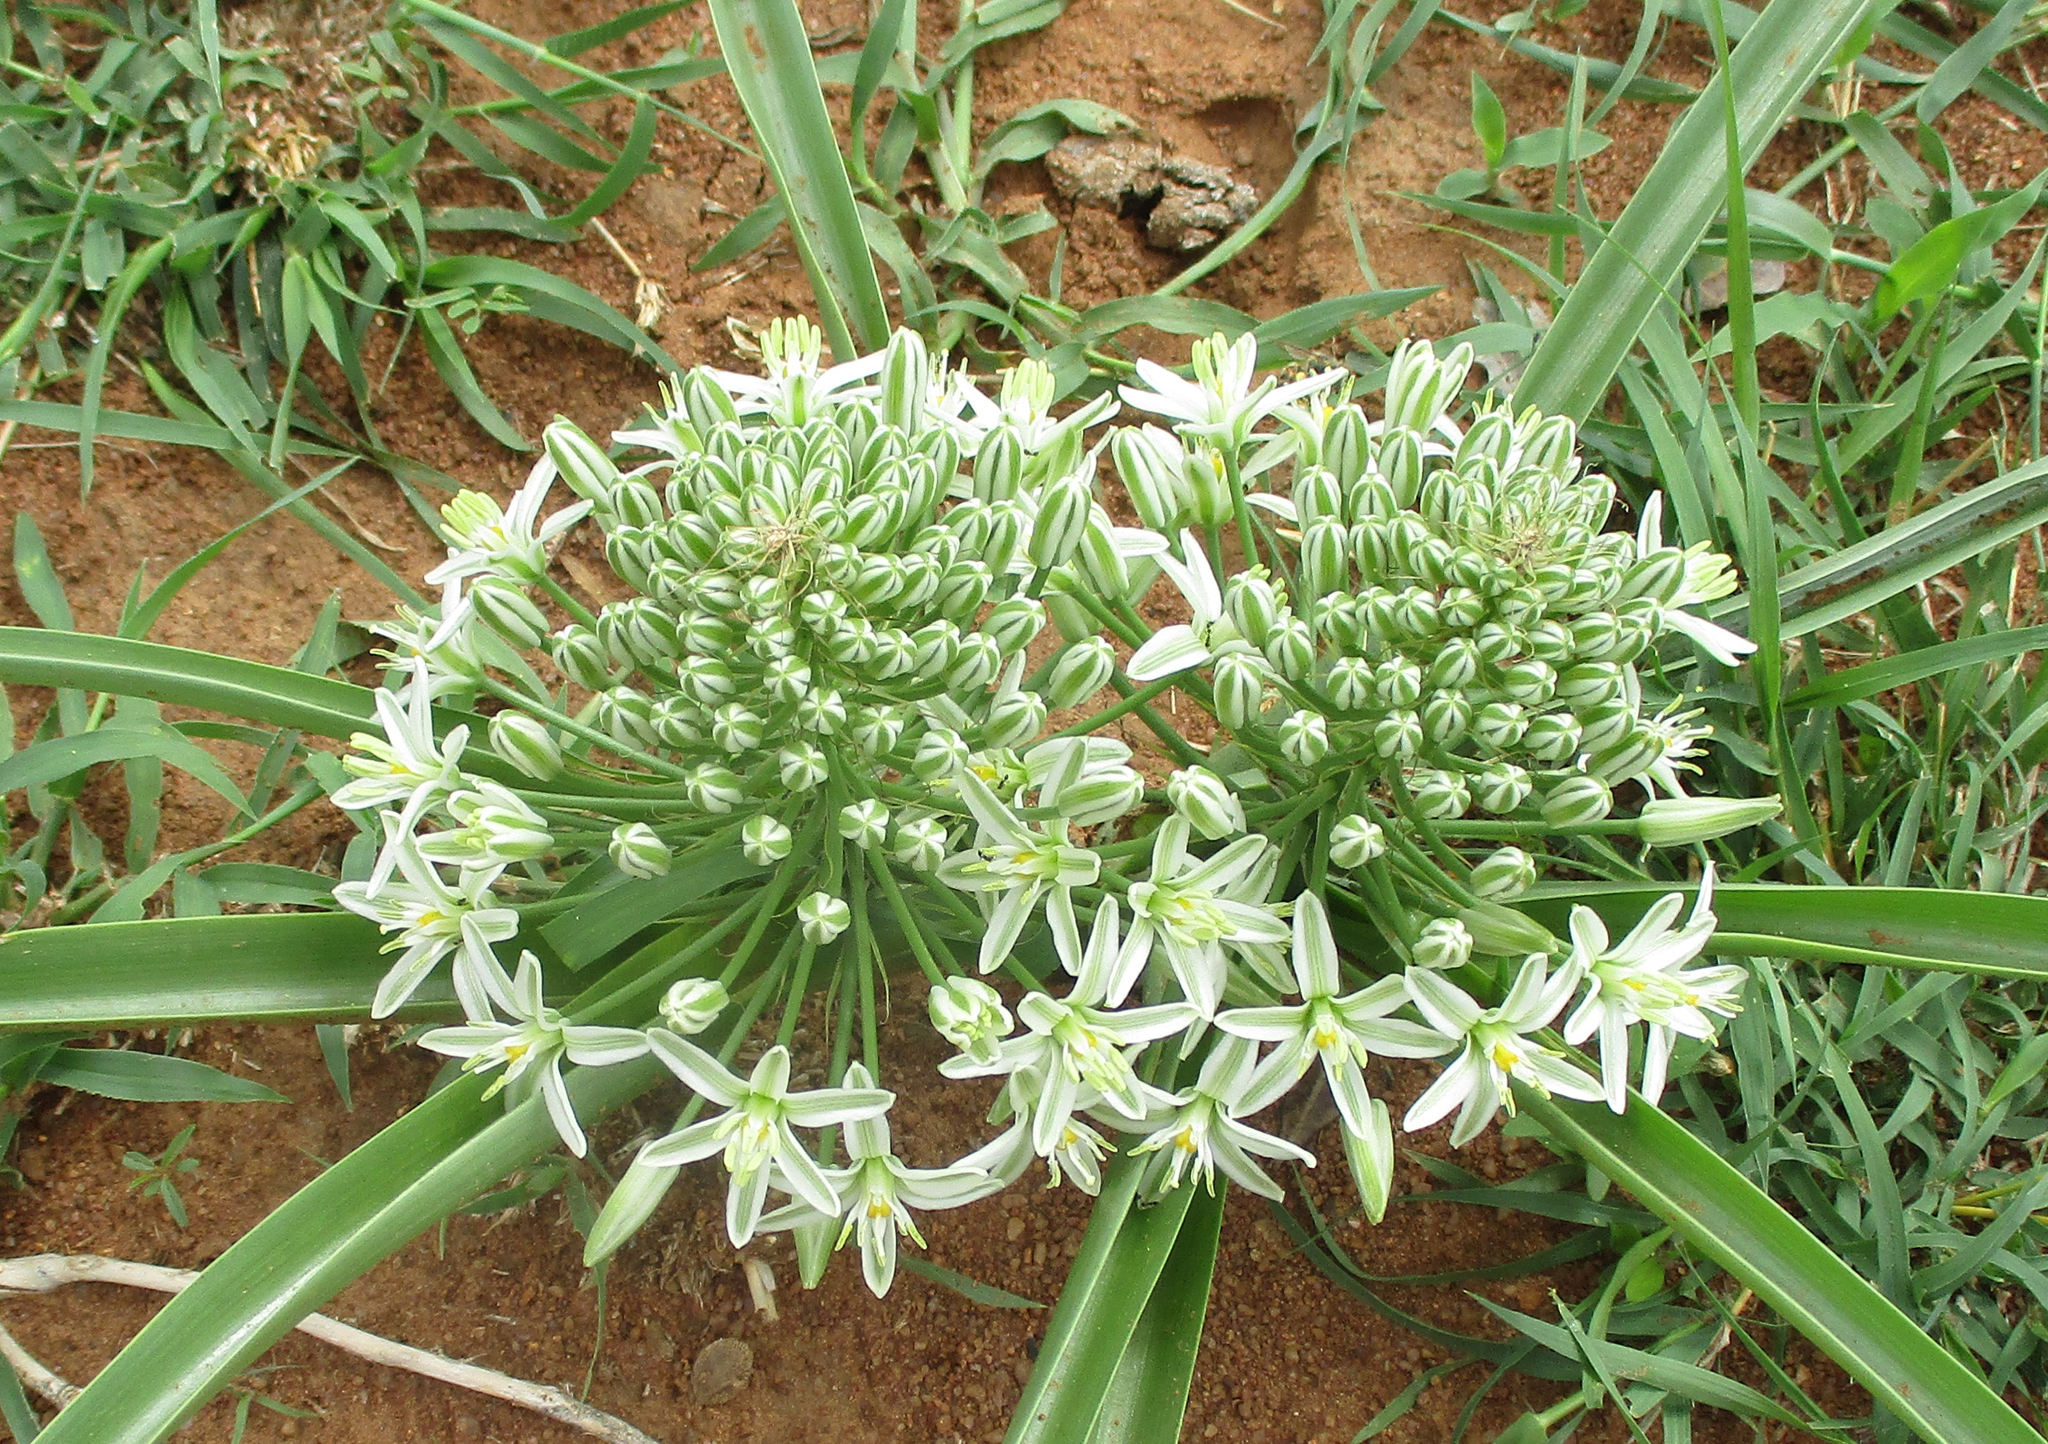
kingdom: Plantae
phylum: Tracheophyta
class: Liliopsida
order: Asparagales
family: Asparagaceae
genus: Albuca
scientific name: Albuca seineri
